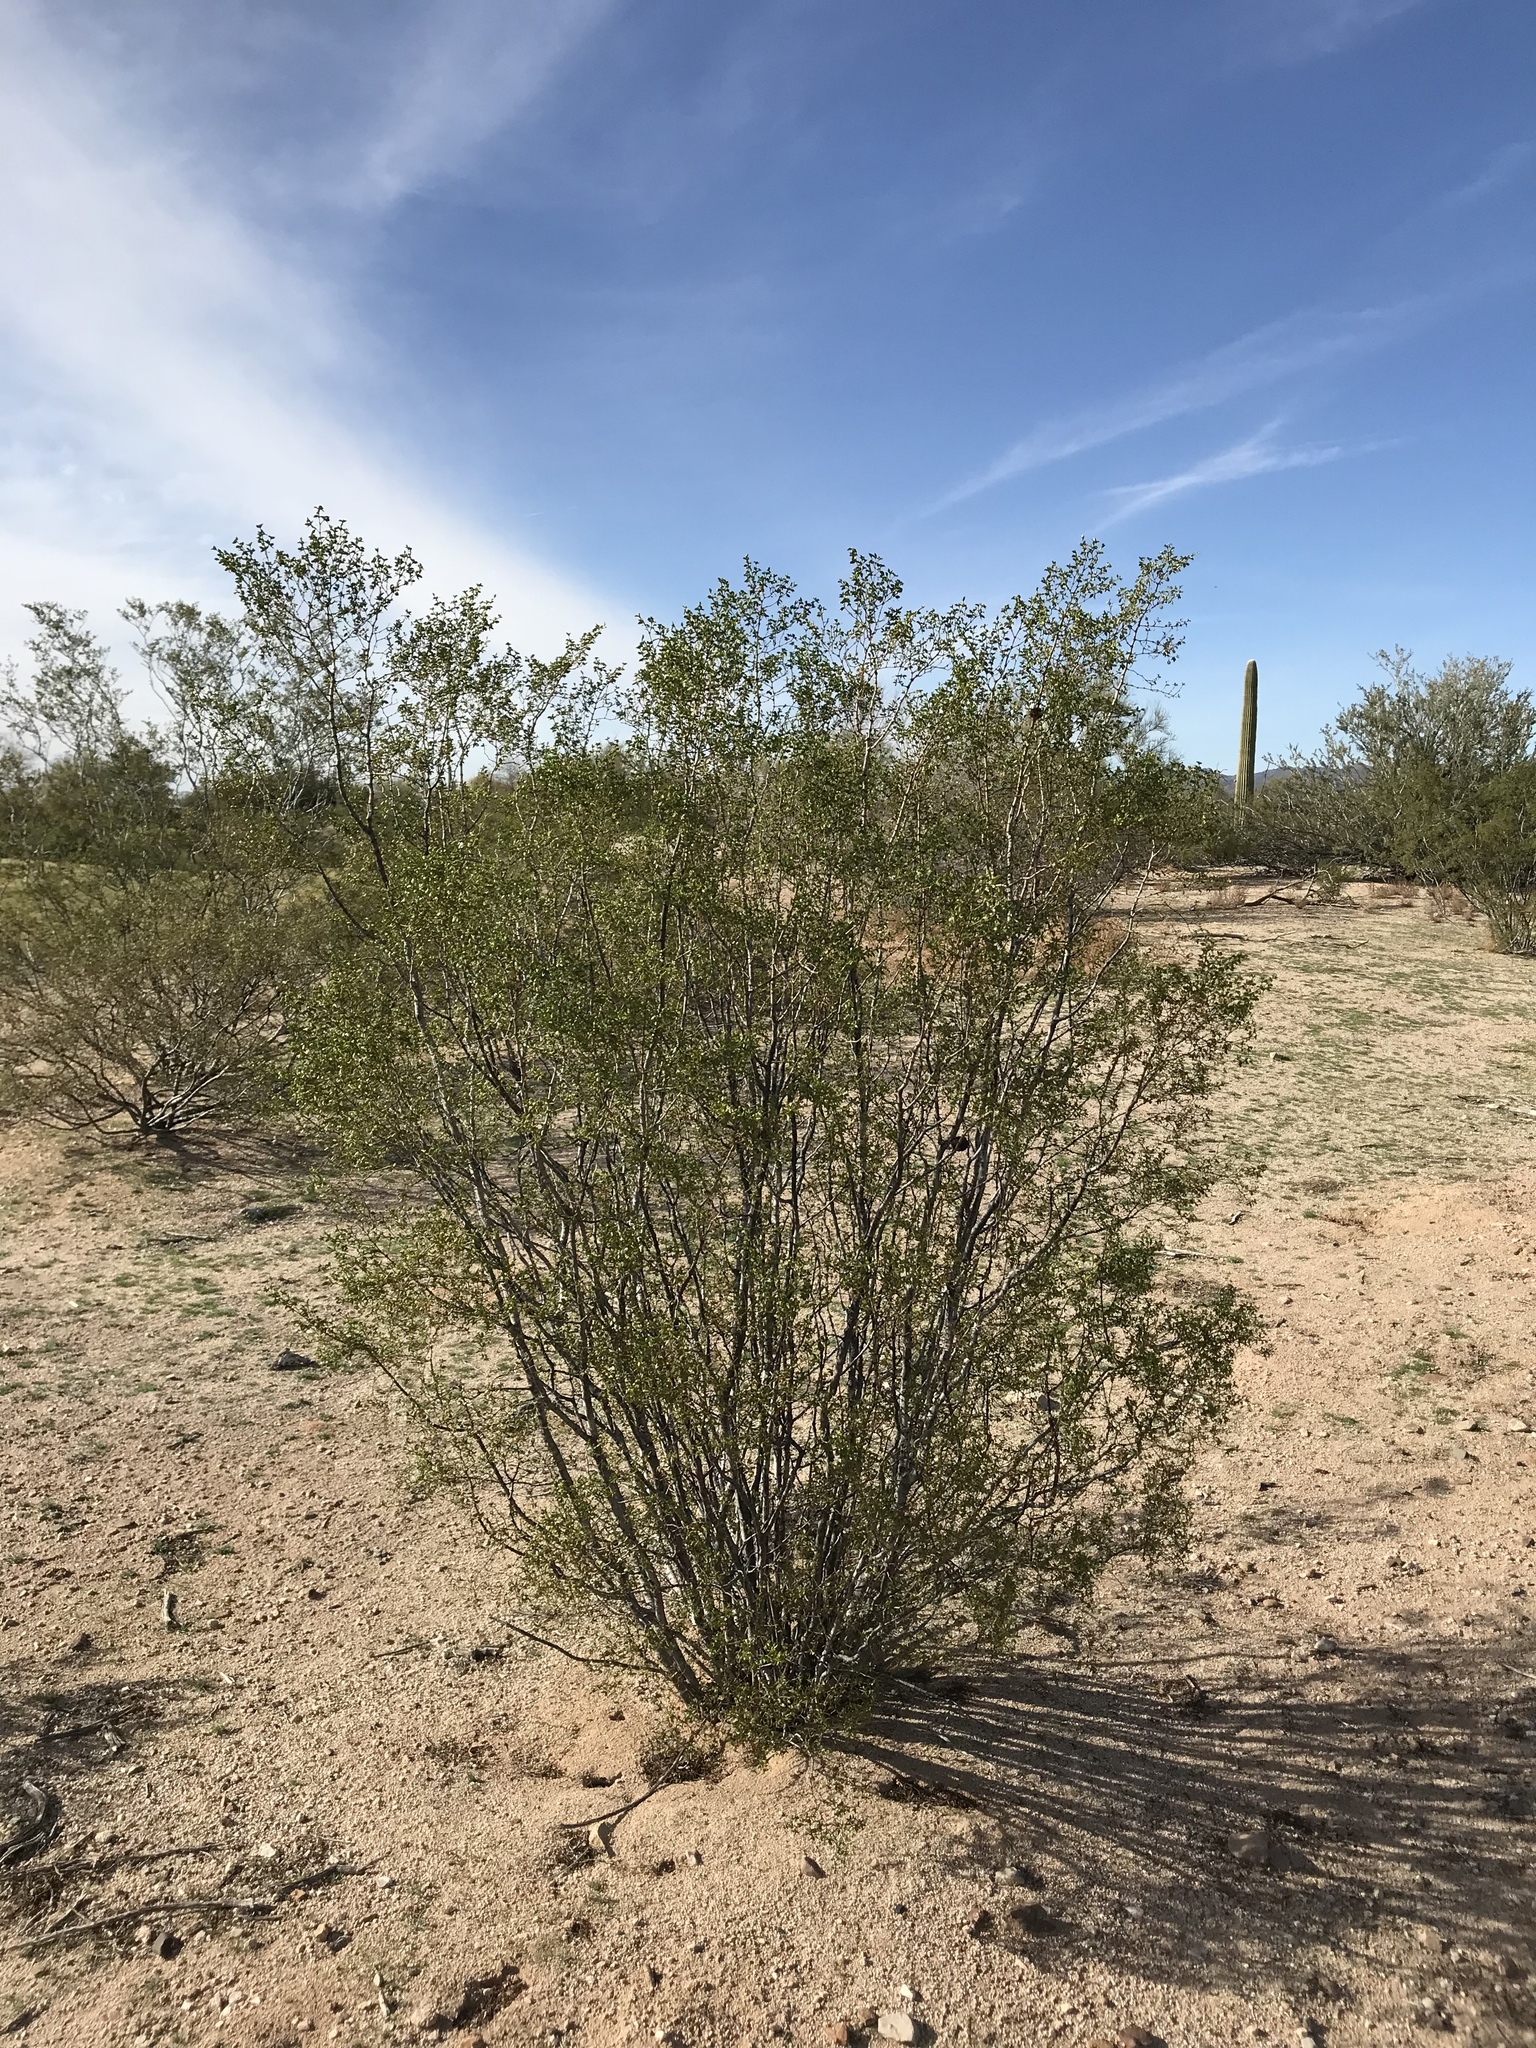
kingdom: Plantae
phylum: Tracheophyta
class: Magnoliopsida
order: Zygophyllales
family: Zygophyllaceae
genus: Larrea
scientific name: Larrea tridentata
